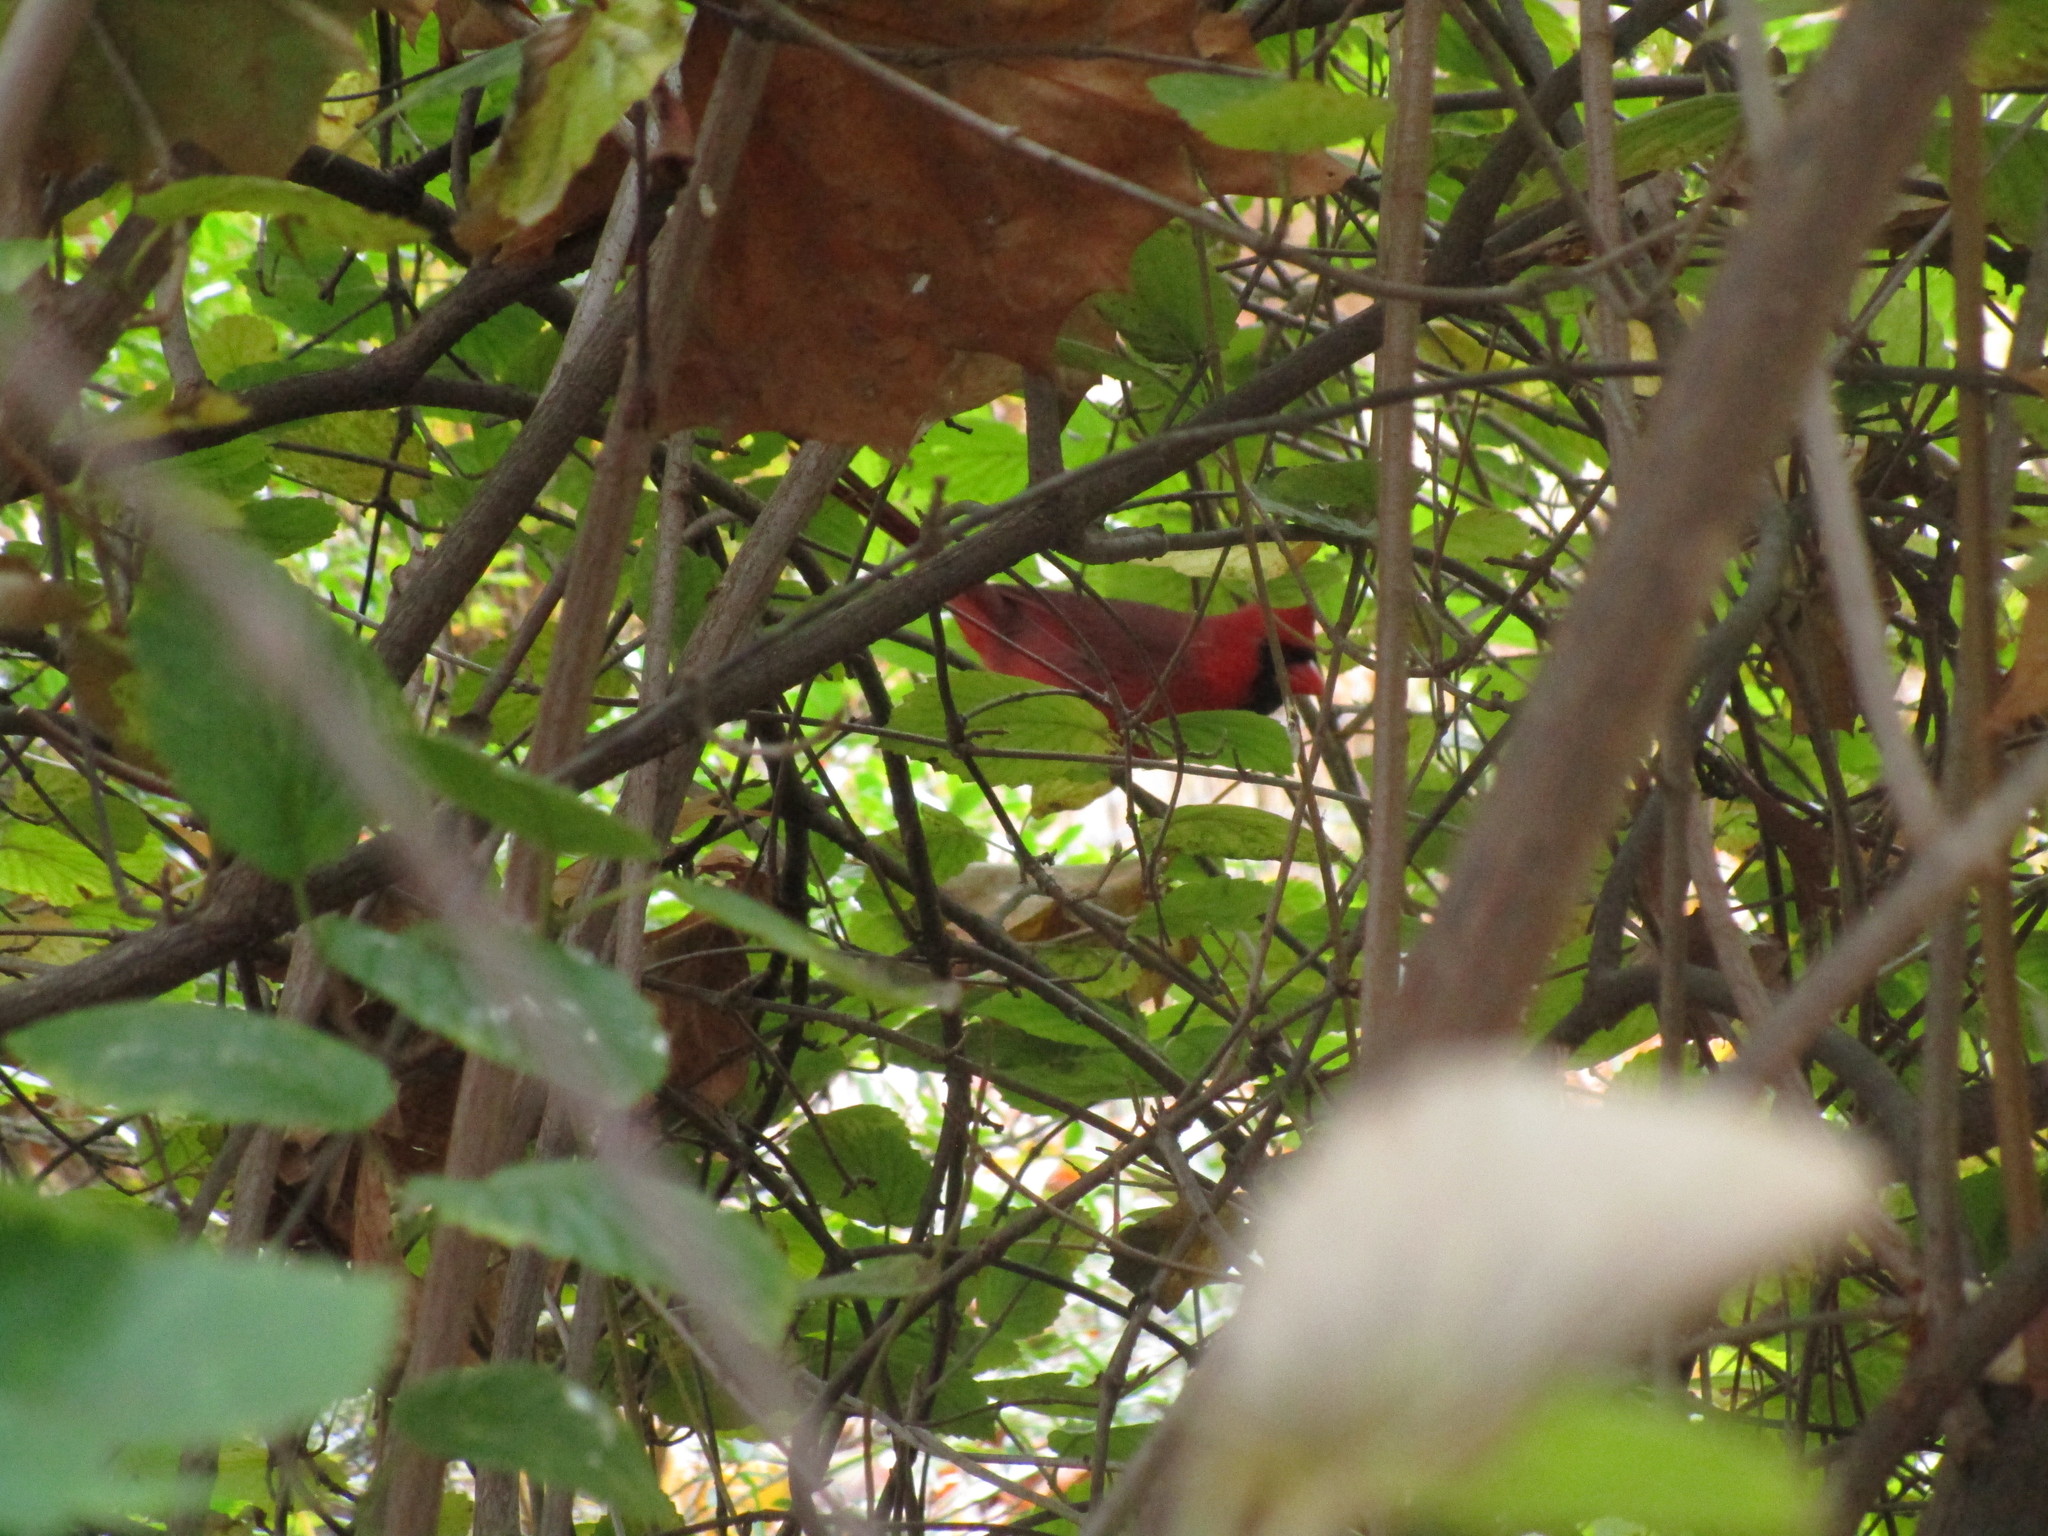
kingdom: Animalia
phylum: Chordata
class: Aves
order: Passeriformes
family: Cardinalidae
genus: Cardinalis
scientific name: Cardinalis cardinalis
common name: Northern cardinal
